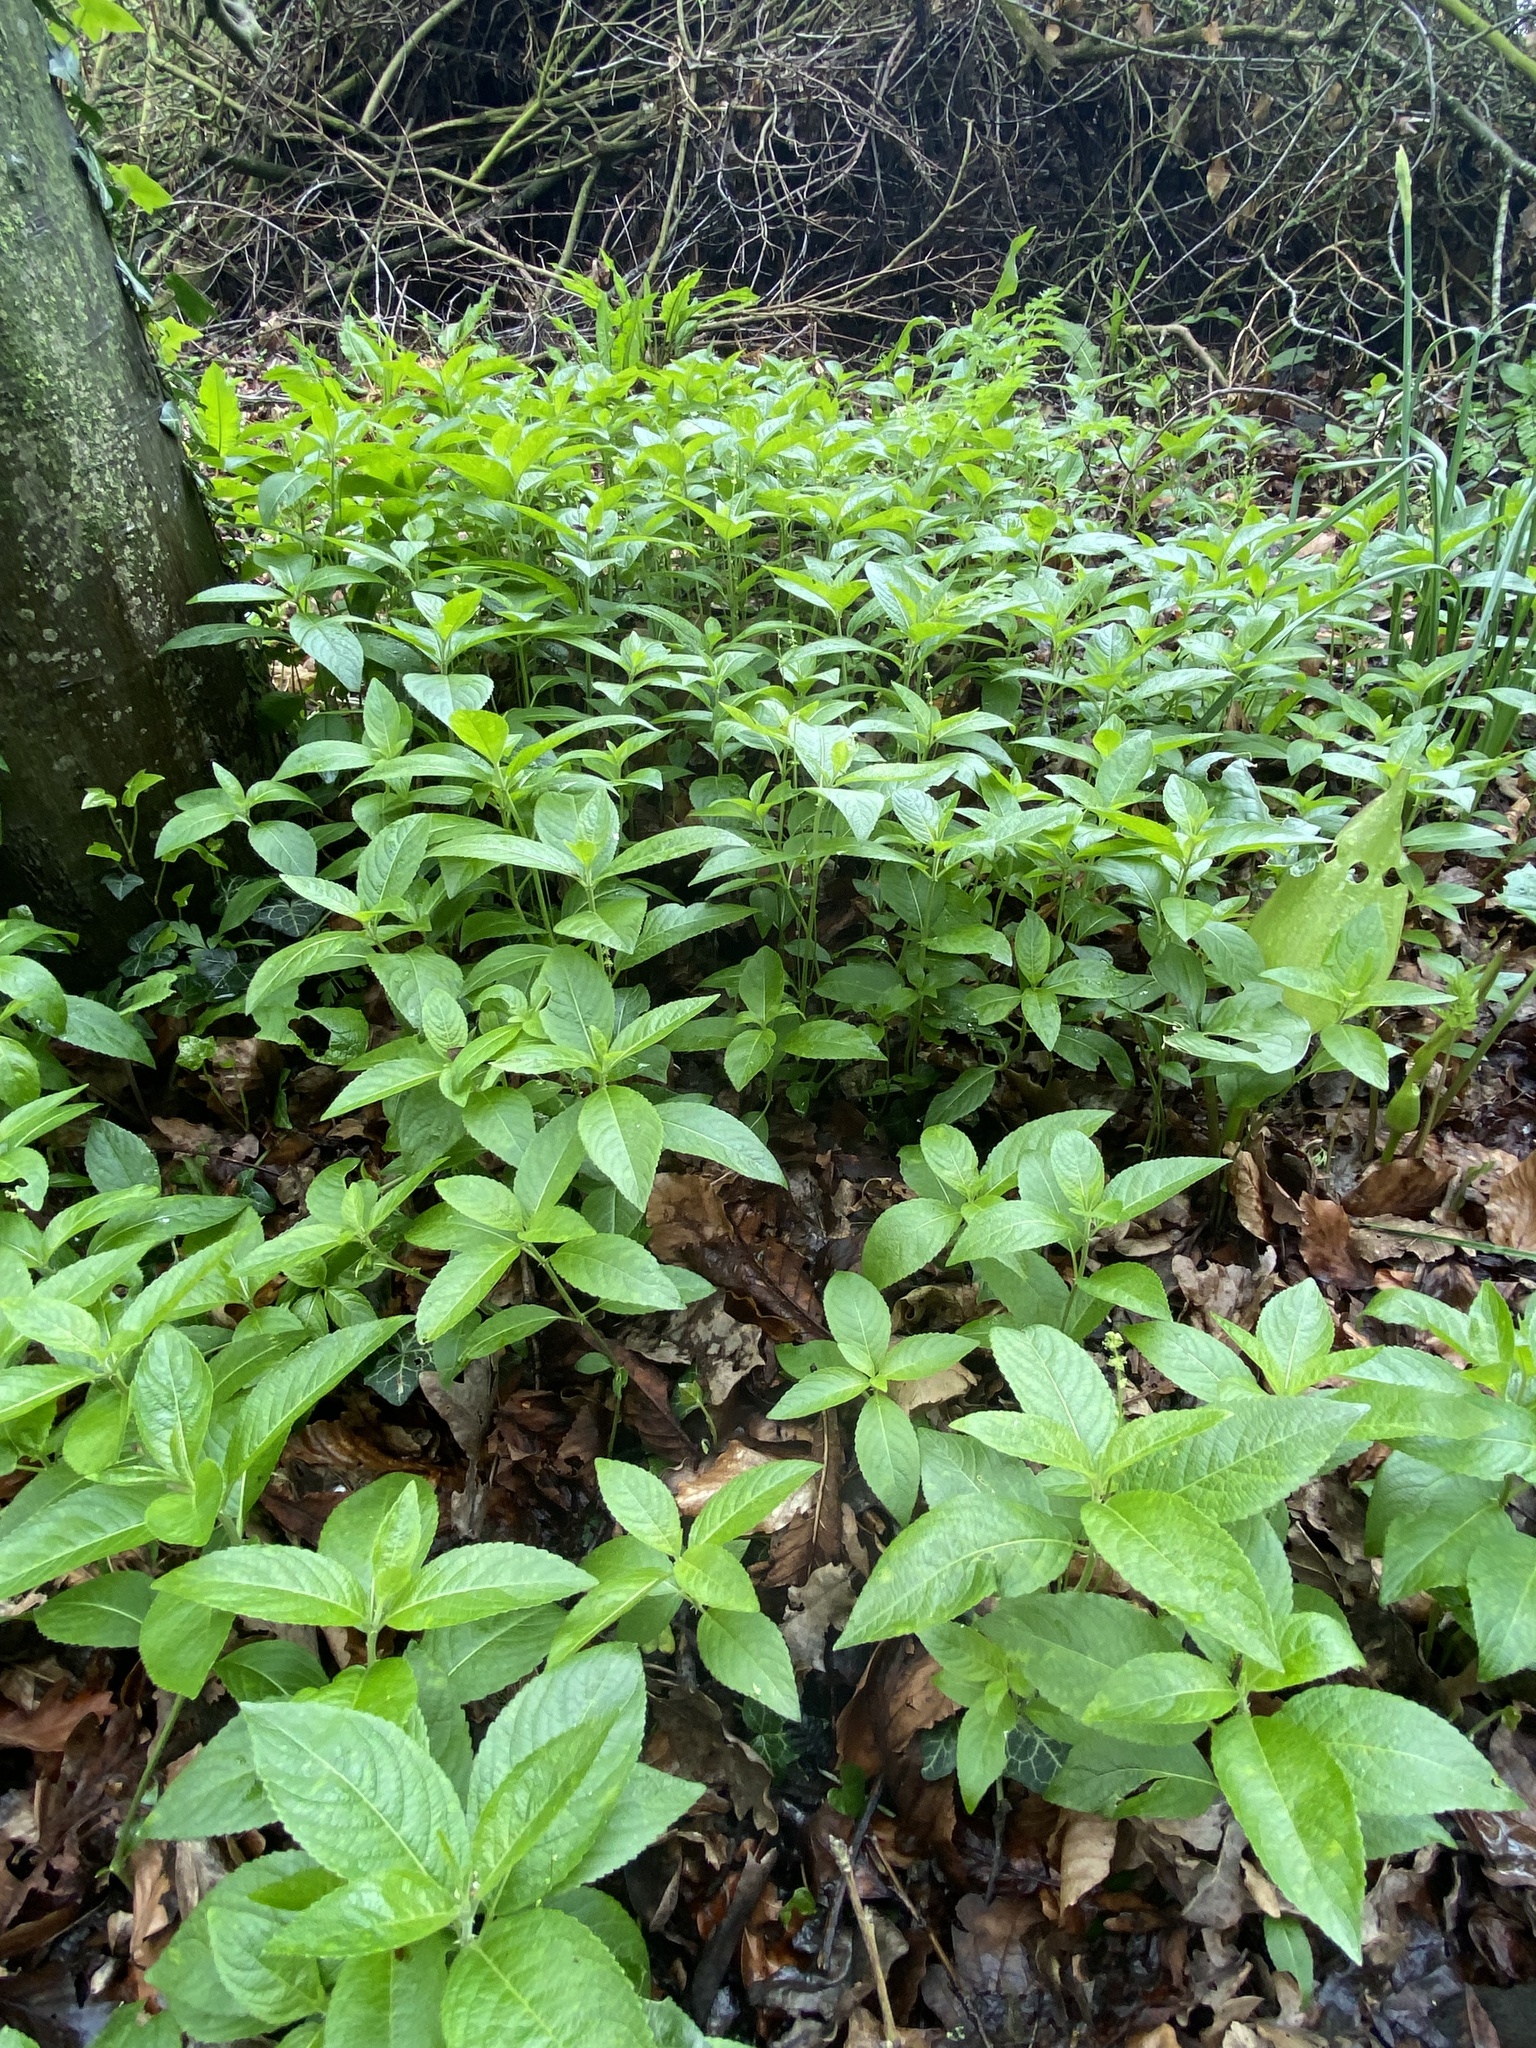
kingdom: Plantae
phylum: Tracheophyta
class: Magnoliopsida
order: Malpighiales
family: Euphorbiaceae
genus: Mercurialis
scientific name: Mercurialis perennis
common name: Dog mercury
